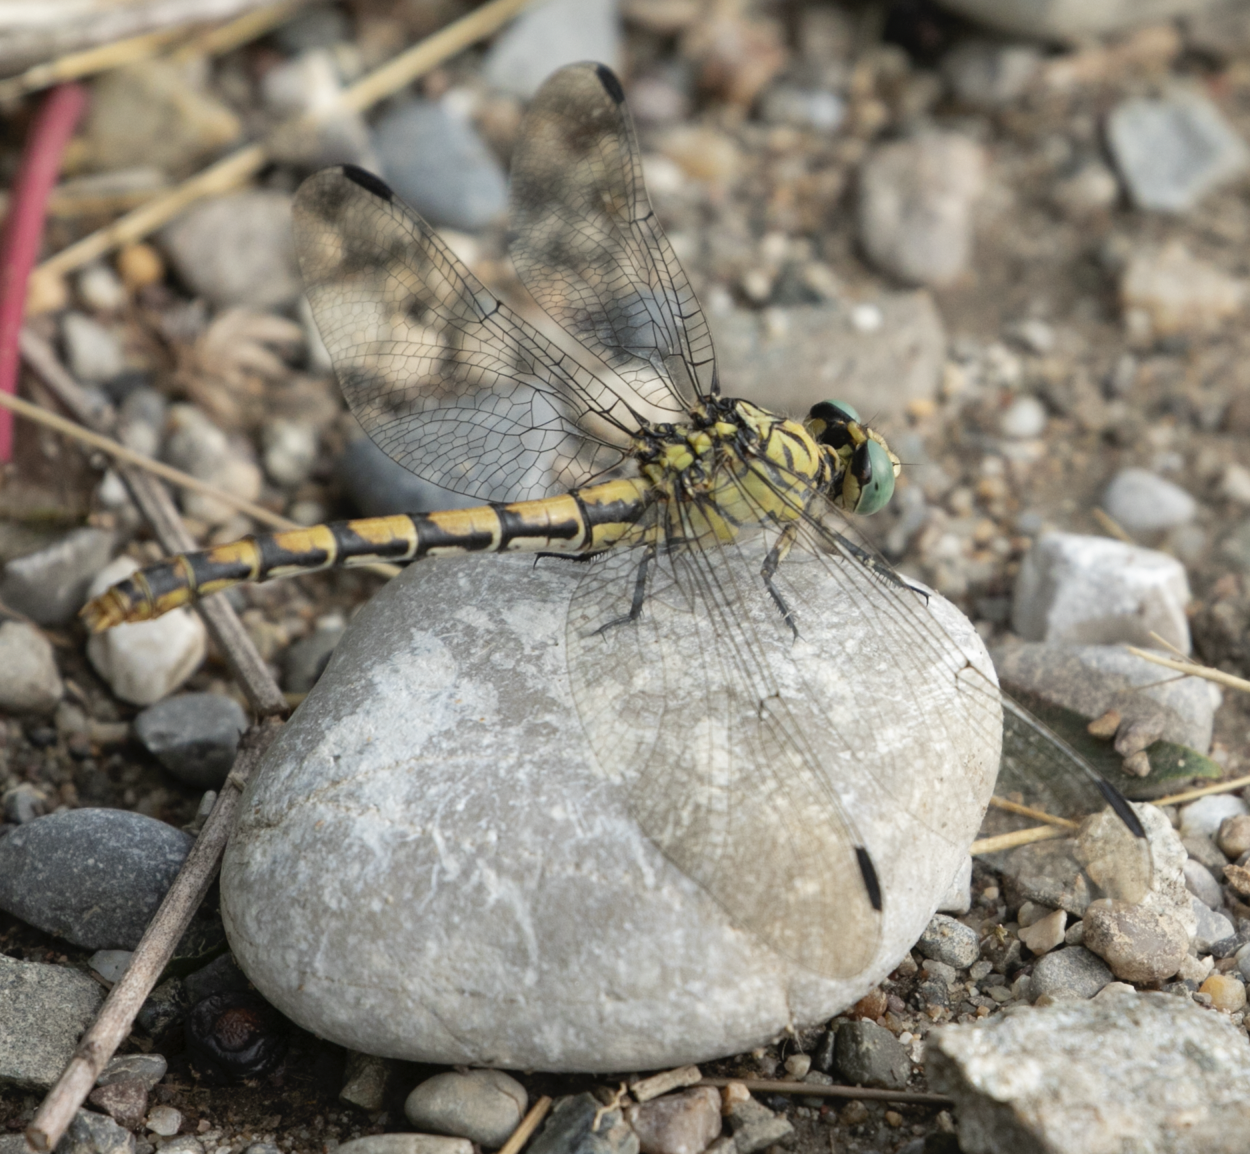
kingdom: Animalia
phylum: Arthropoda
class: Insecta
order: Odonata
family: Gomphidae
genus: Onychogomphus
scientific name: Onychogomphus forcipatus
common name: Small pincertail
